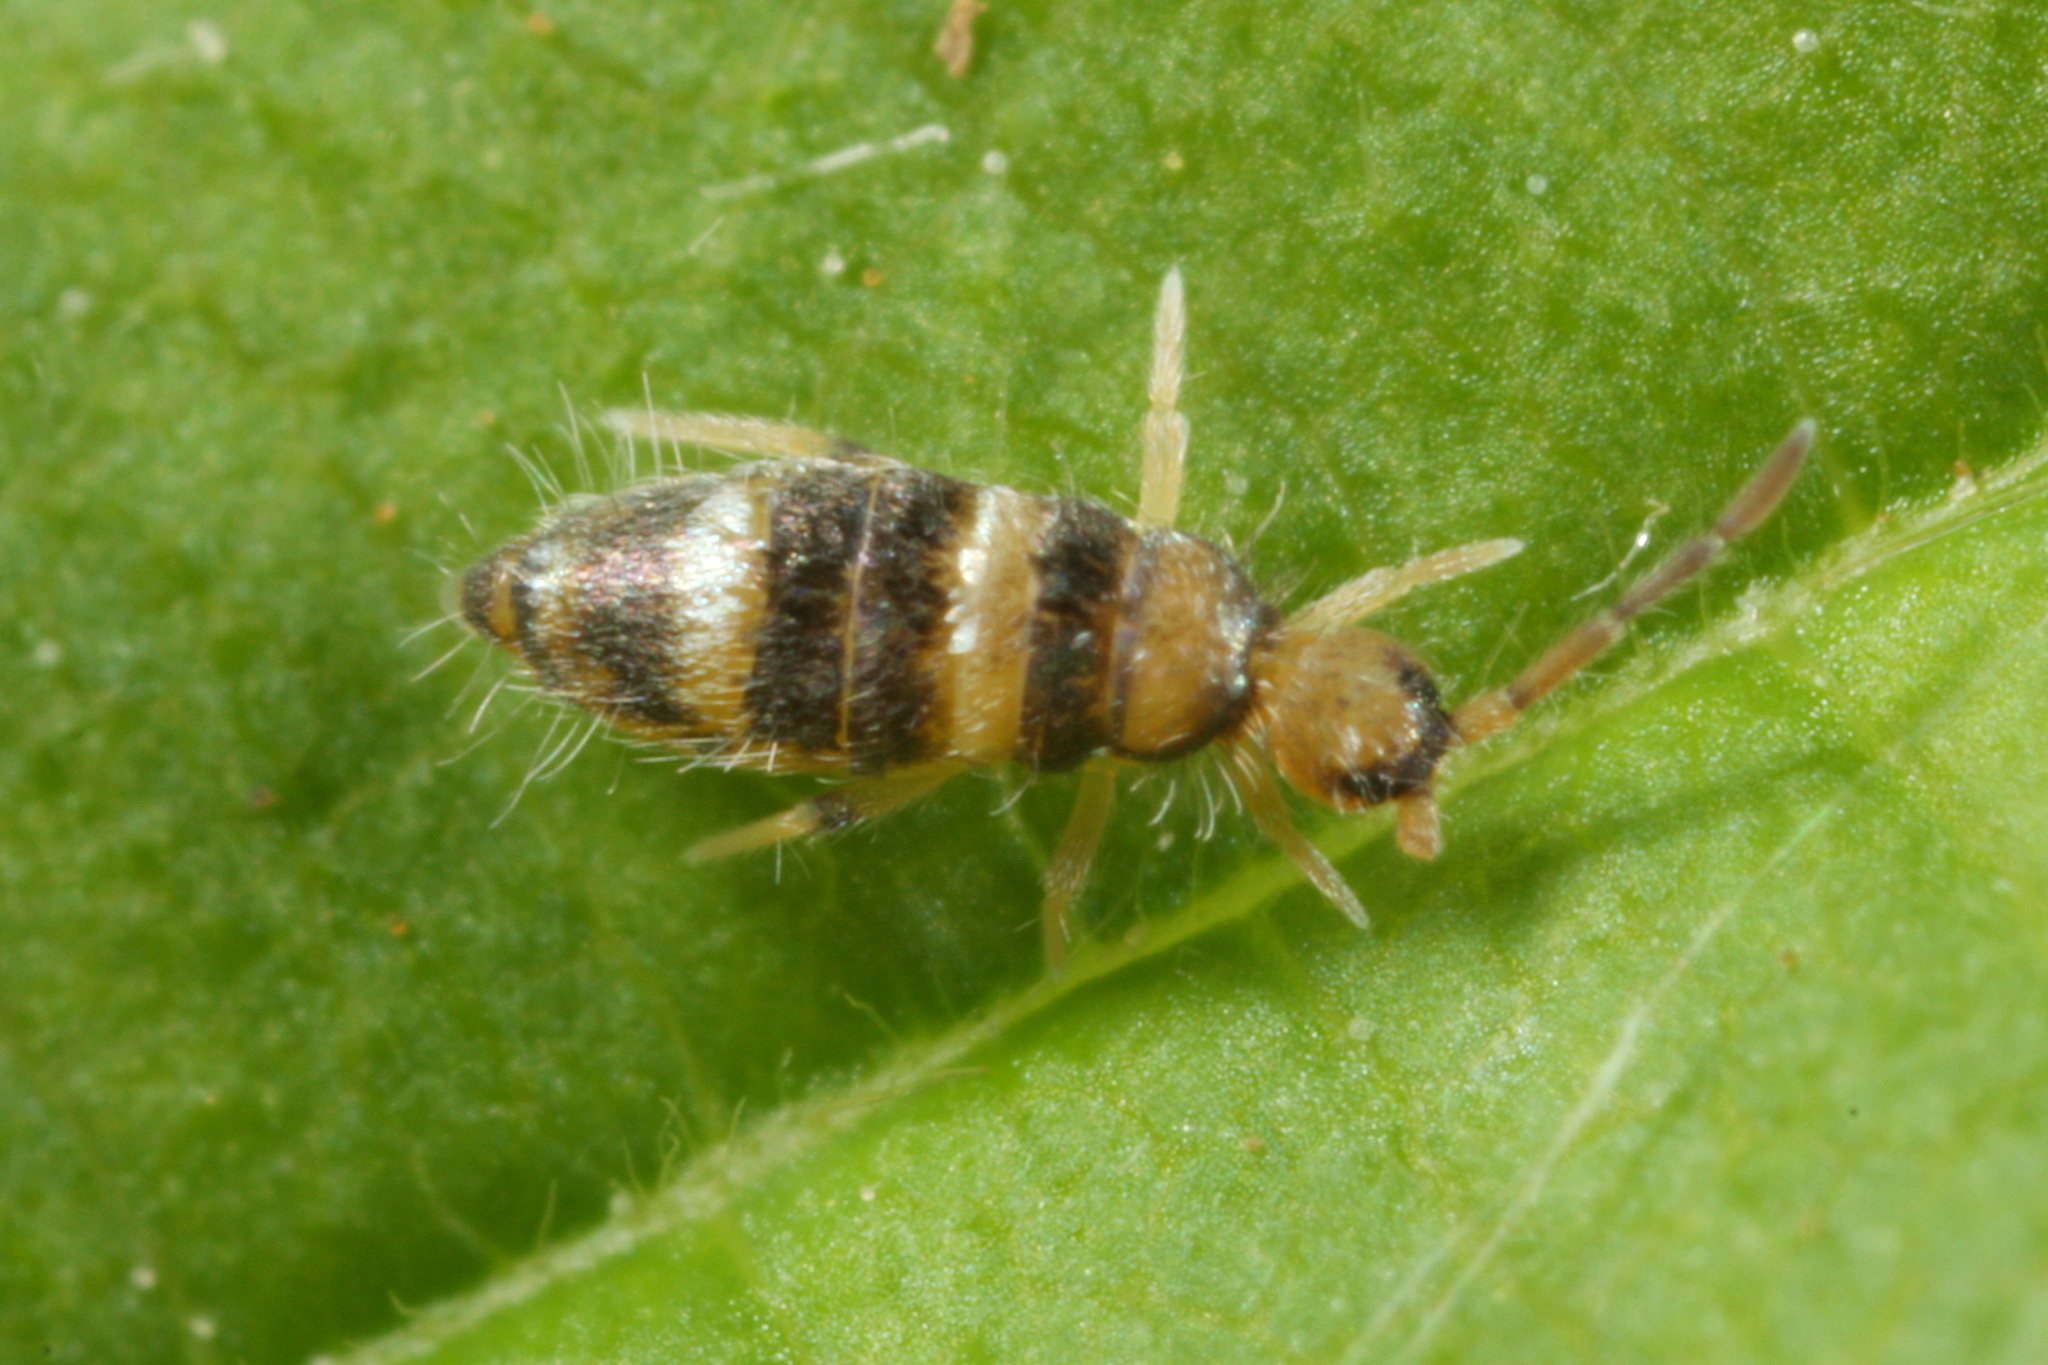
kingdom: Animalia
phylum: Arthropoda
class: Collembola
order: Entomobryomorpha
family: Entomobryidae
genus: Willowsia
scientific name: Willowsia platani
